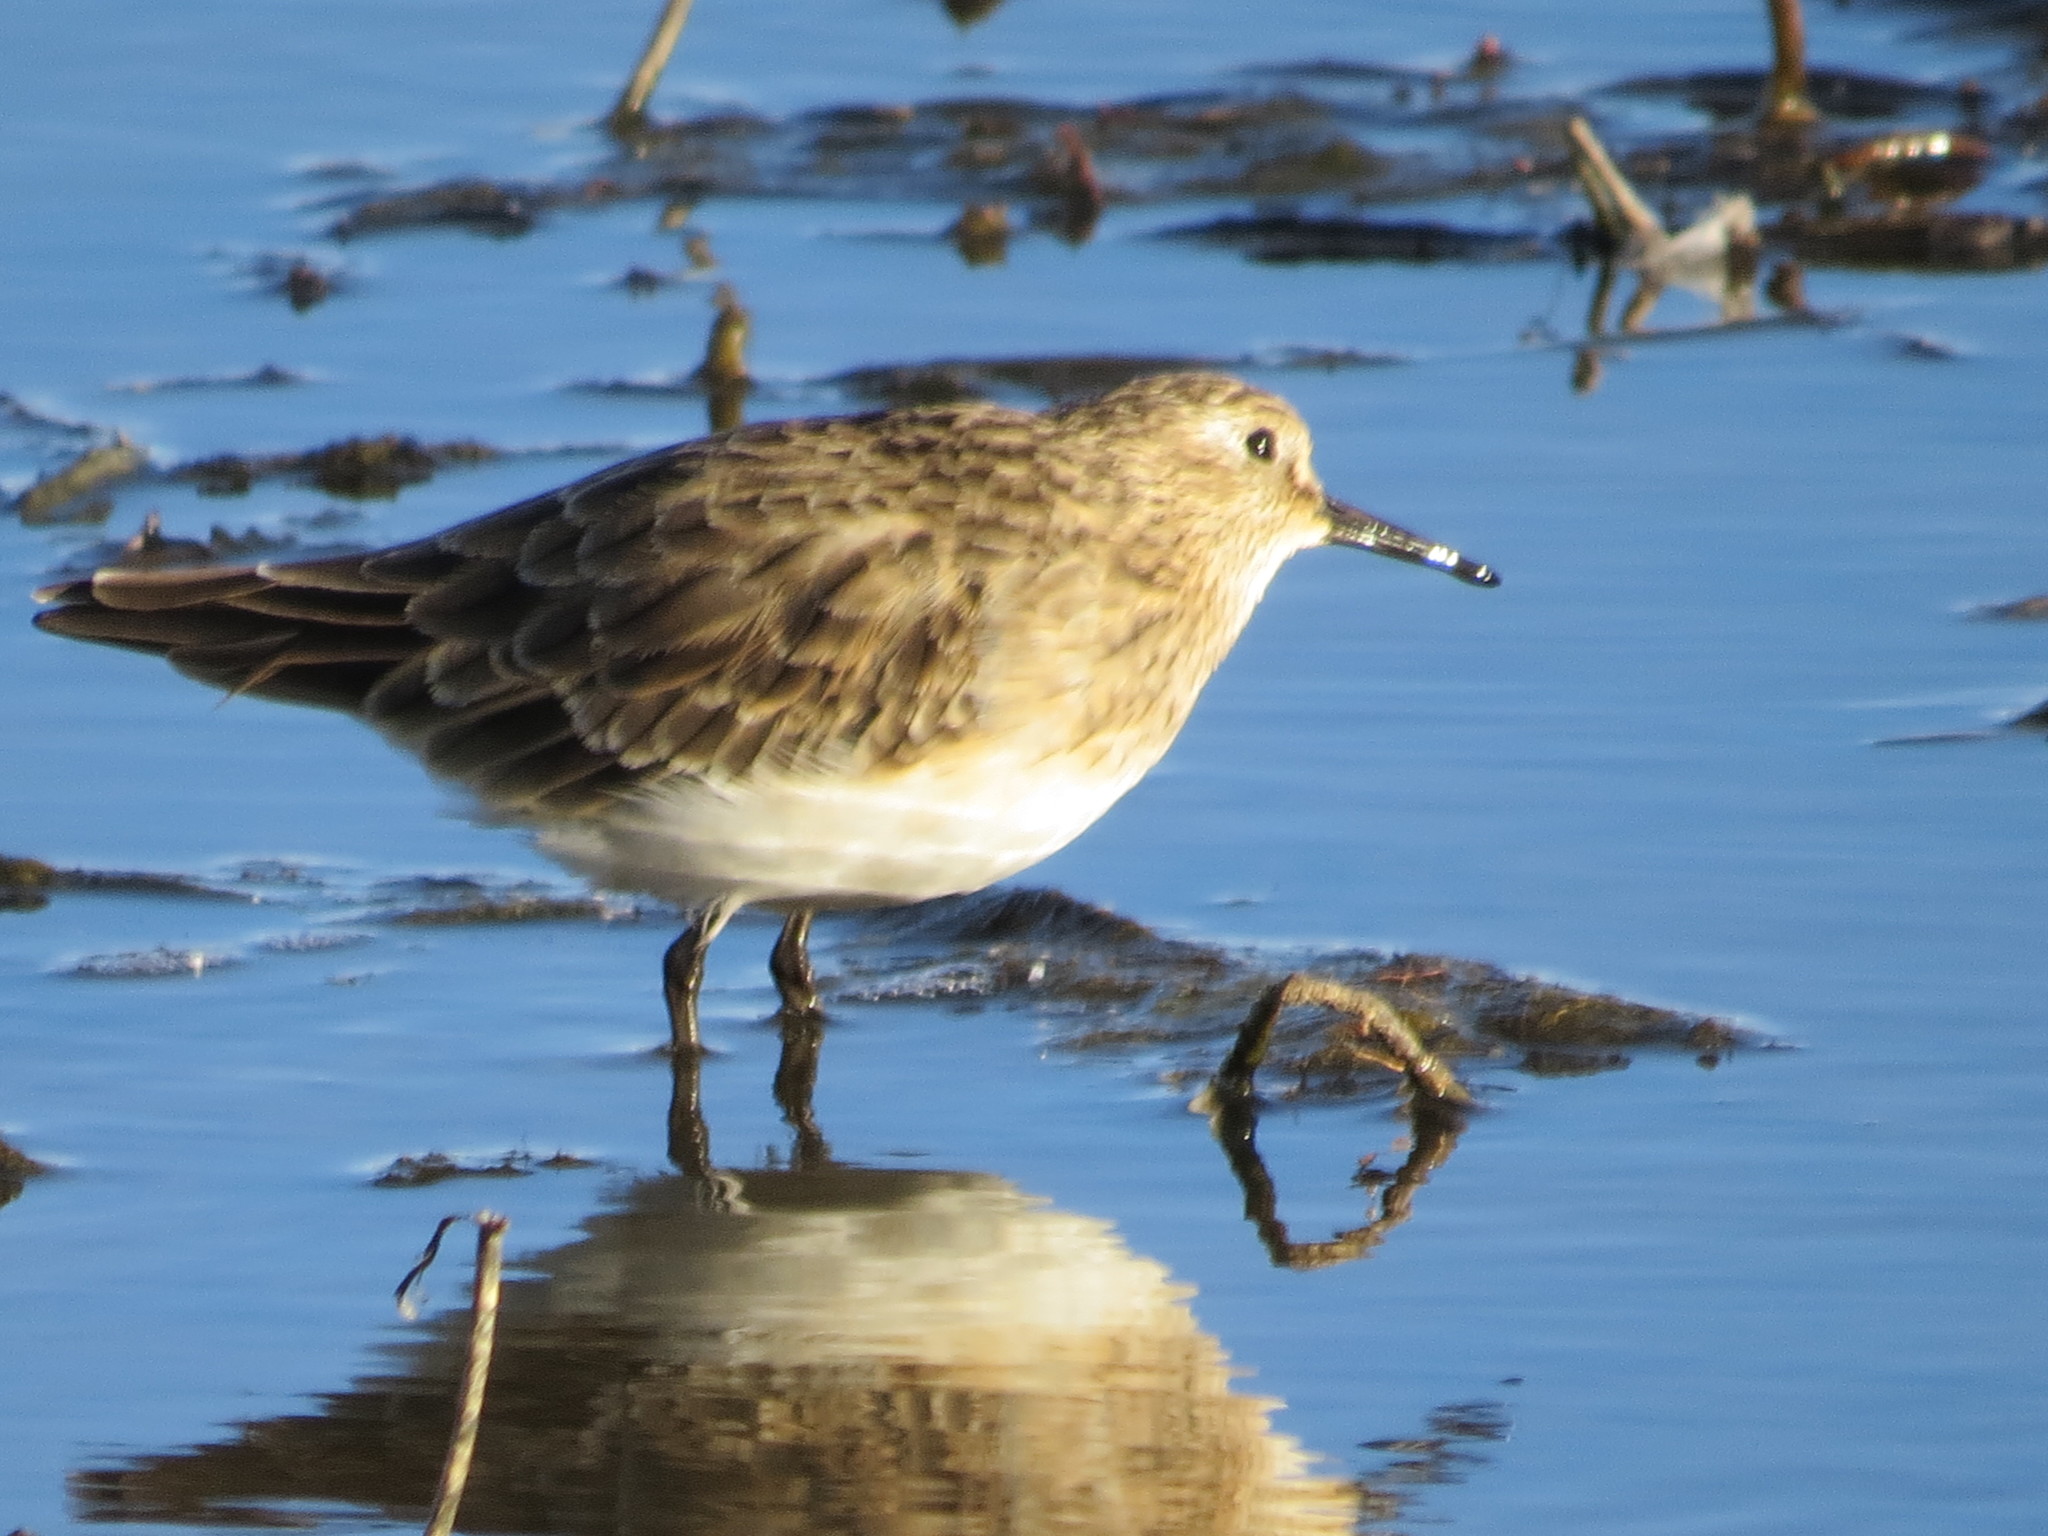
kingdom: Animalia
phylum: Chordata
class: Aves
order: Charadriiformes
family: Scolopacidae
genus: Calidris
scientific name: Calidris bairdii
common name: Baird's sandpiper
